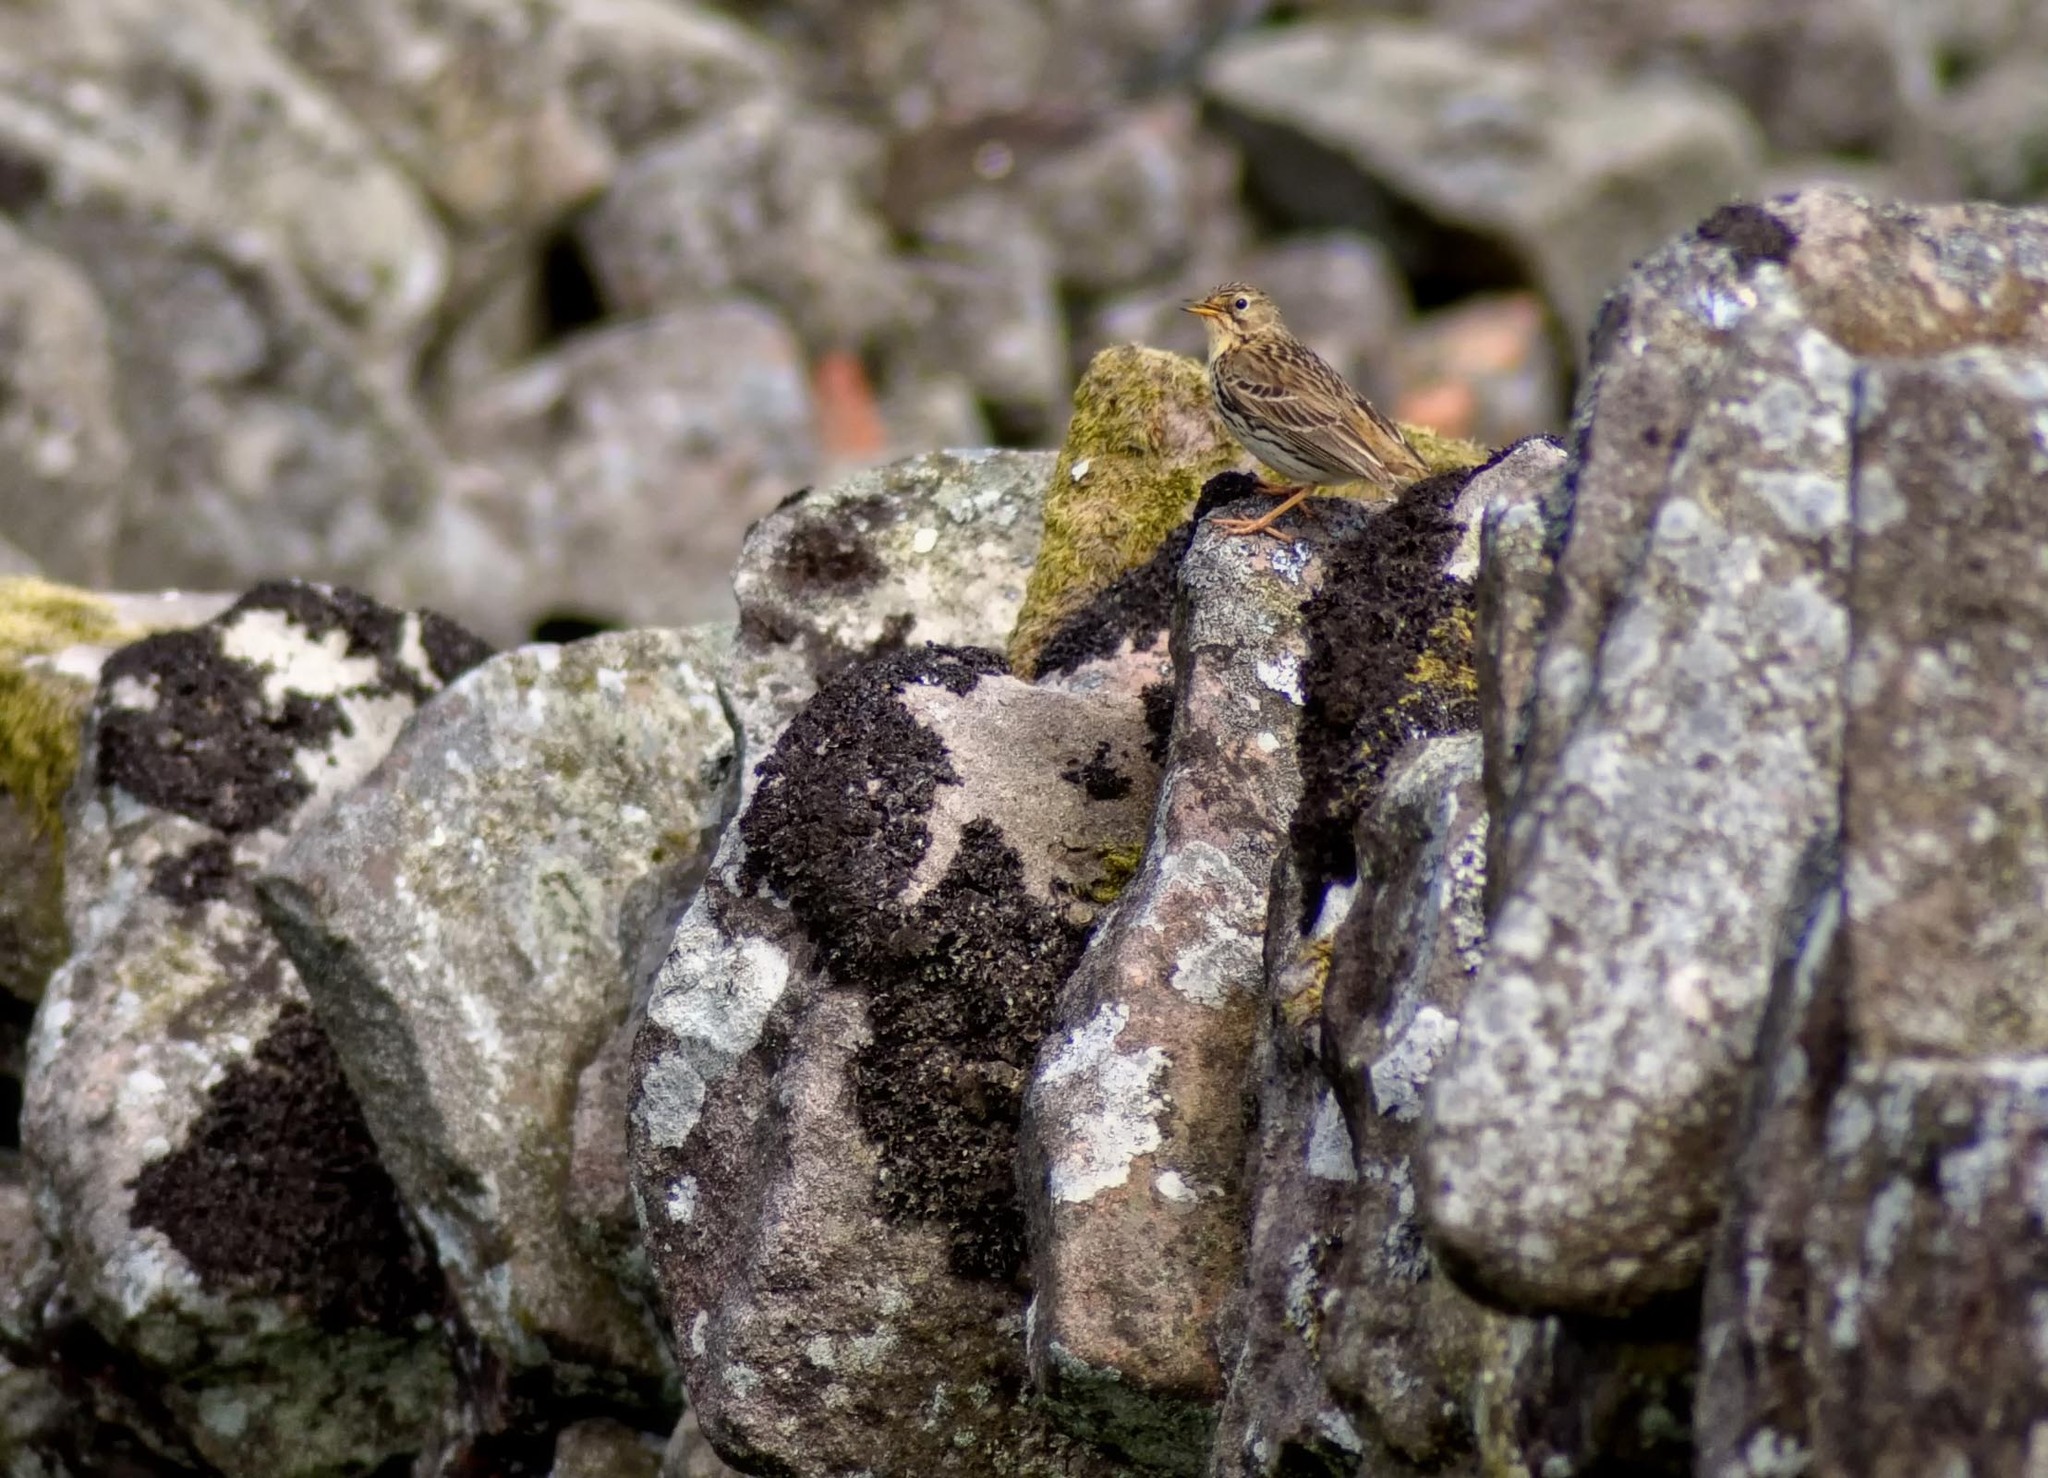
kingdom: Animalia
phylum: Chordata
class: Aves
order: Passeriformes
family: Motacillidae
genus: Anthus
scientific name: Anthus pratensis
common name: Meadow pipit
